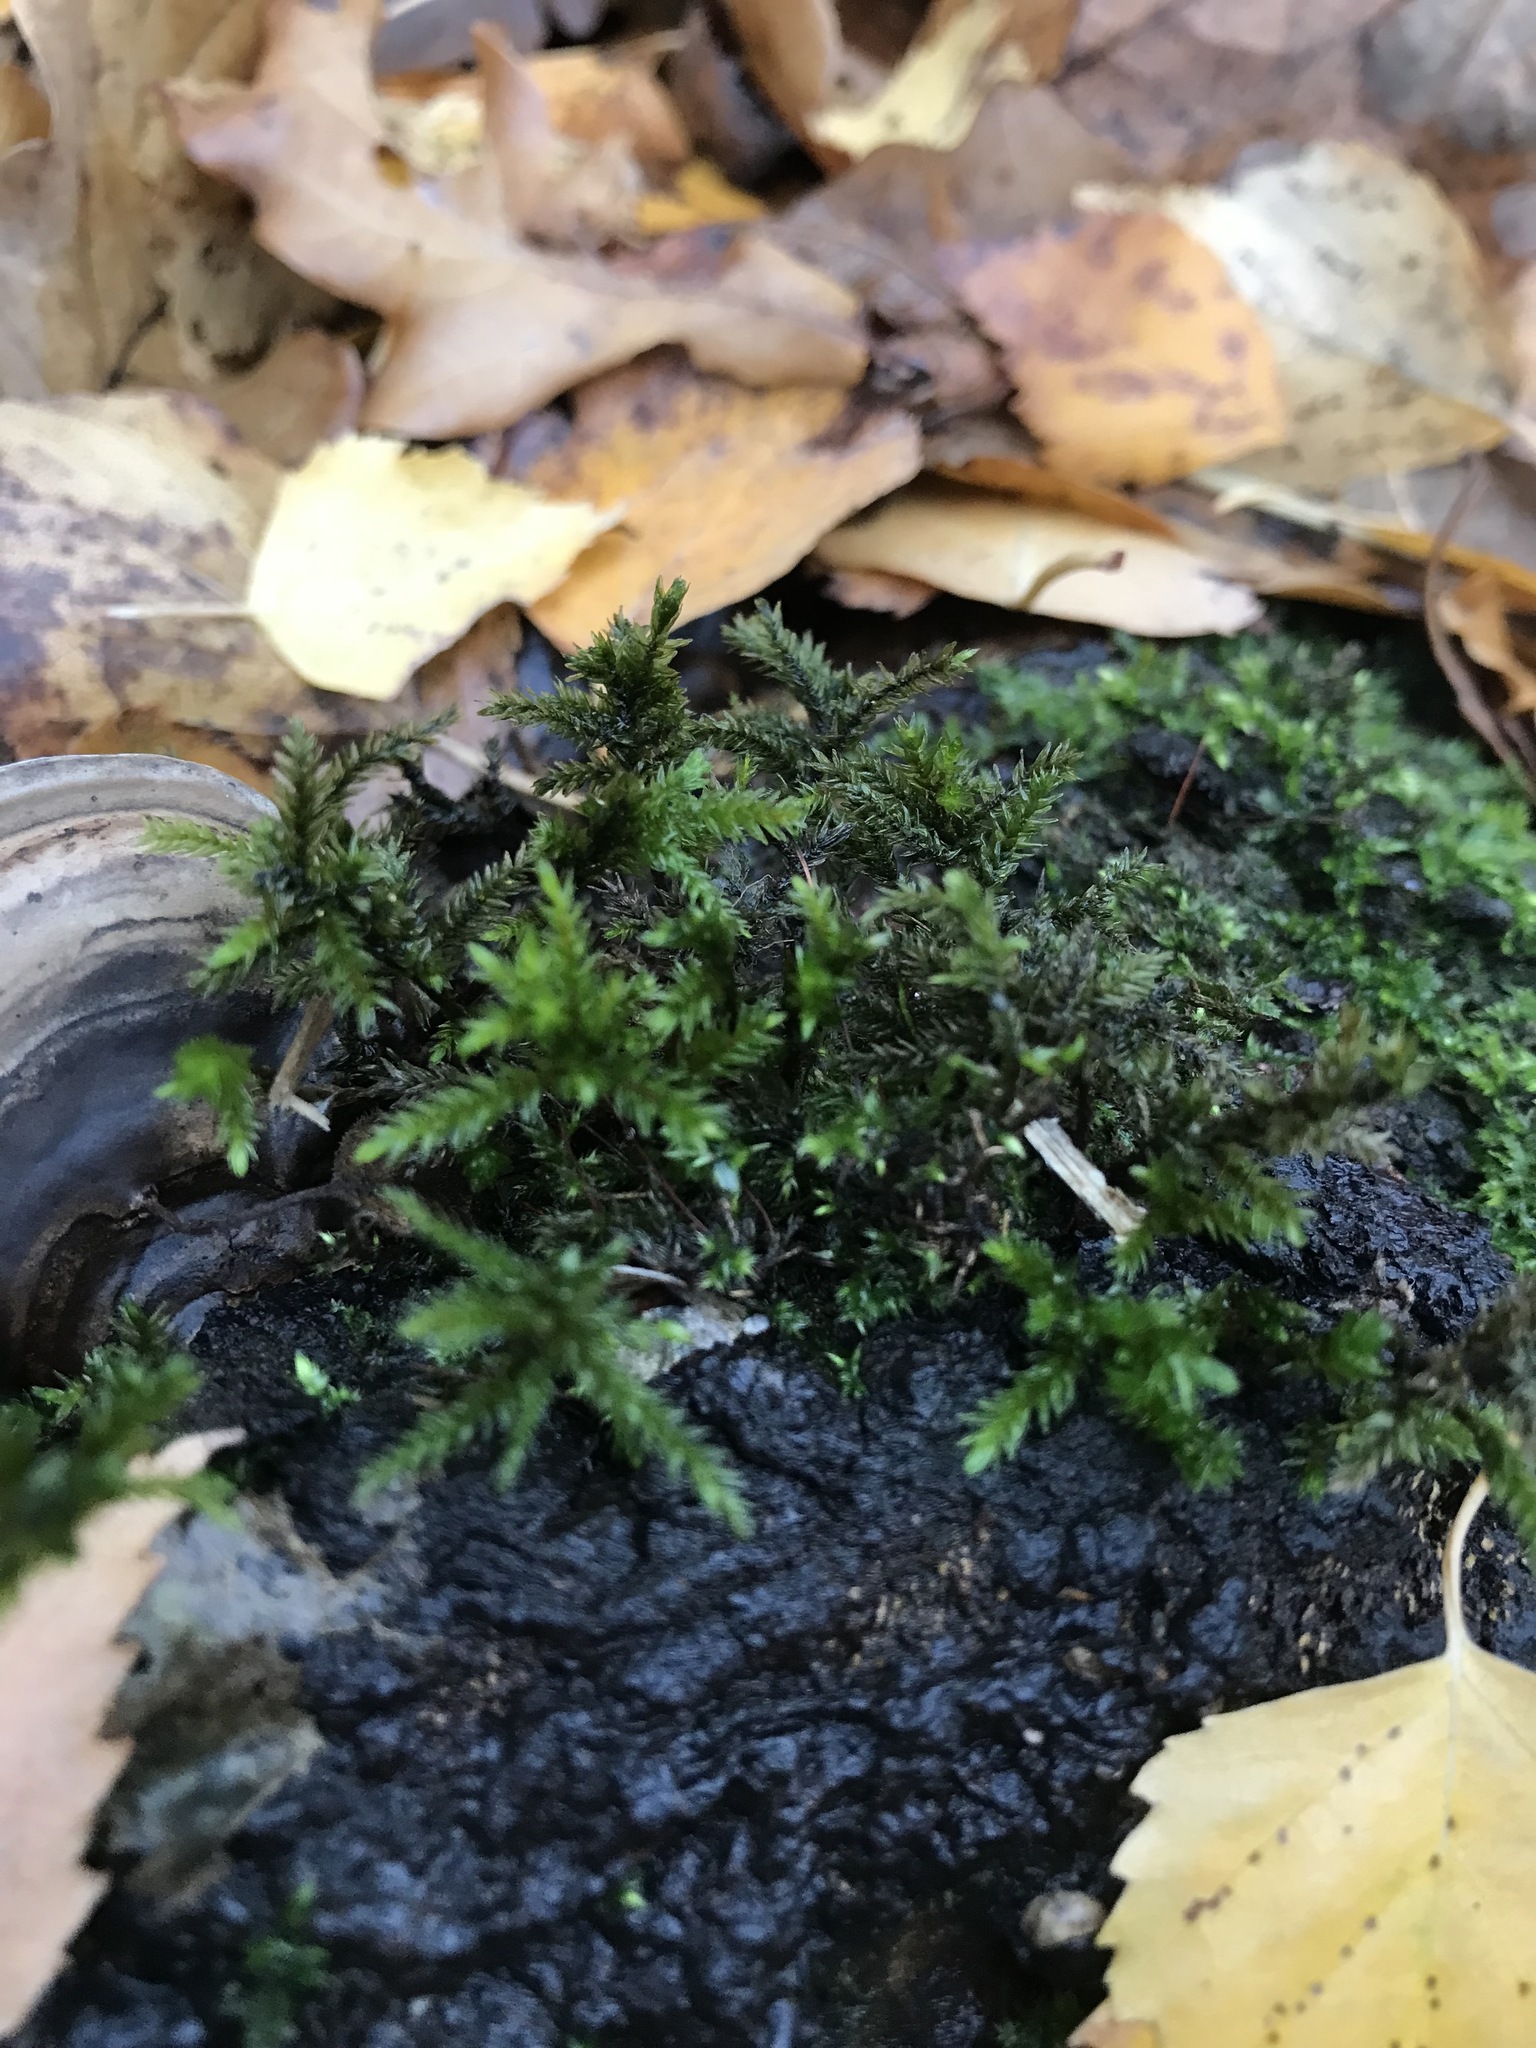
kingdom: Plantae
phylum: Bryophyta
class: Bryopsida
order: Hypnales
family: Climaciaceae
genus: Climacium
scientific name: Climacium dendroides
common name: Northern tree moss
